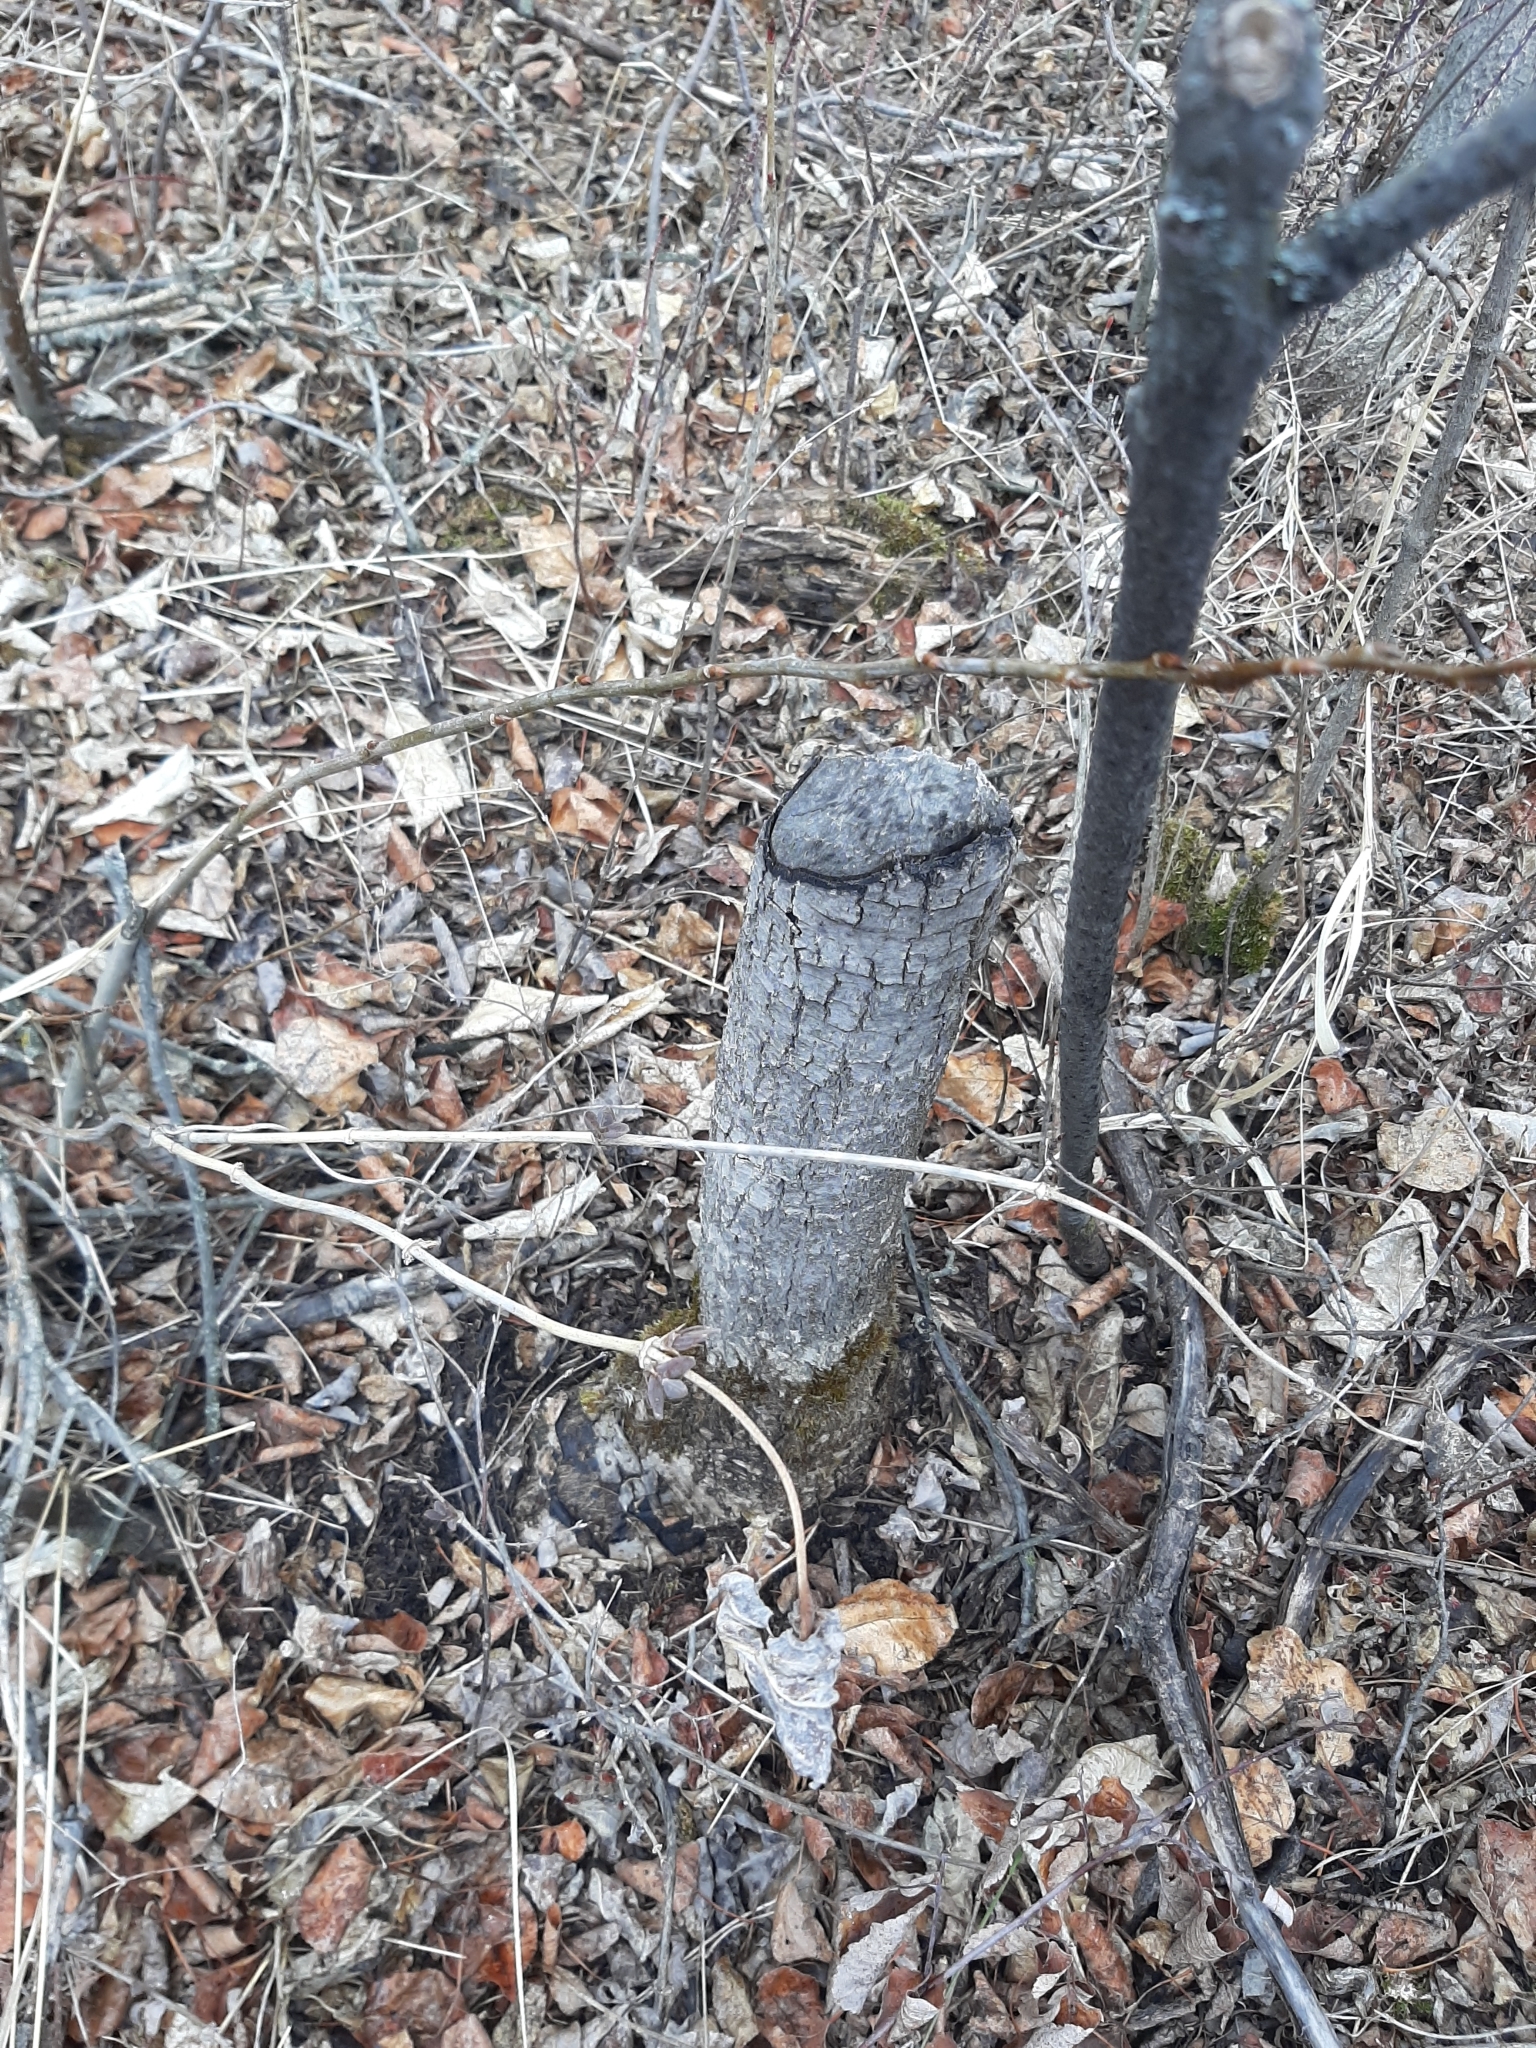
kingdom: Animalia
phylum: Chordata
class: Mammalia
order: Rodentia
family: Castoridae
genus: Castor
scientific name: Castor canadensis
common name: American beaver
